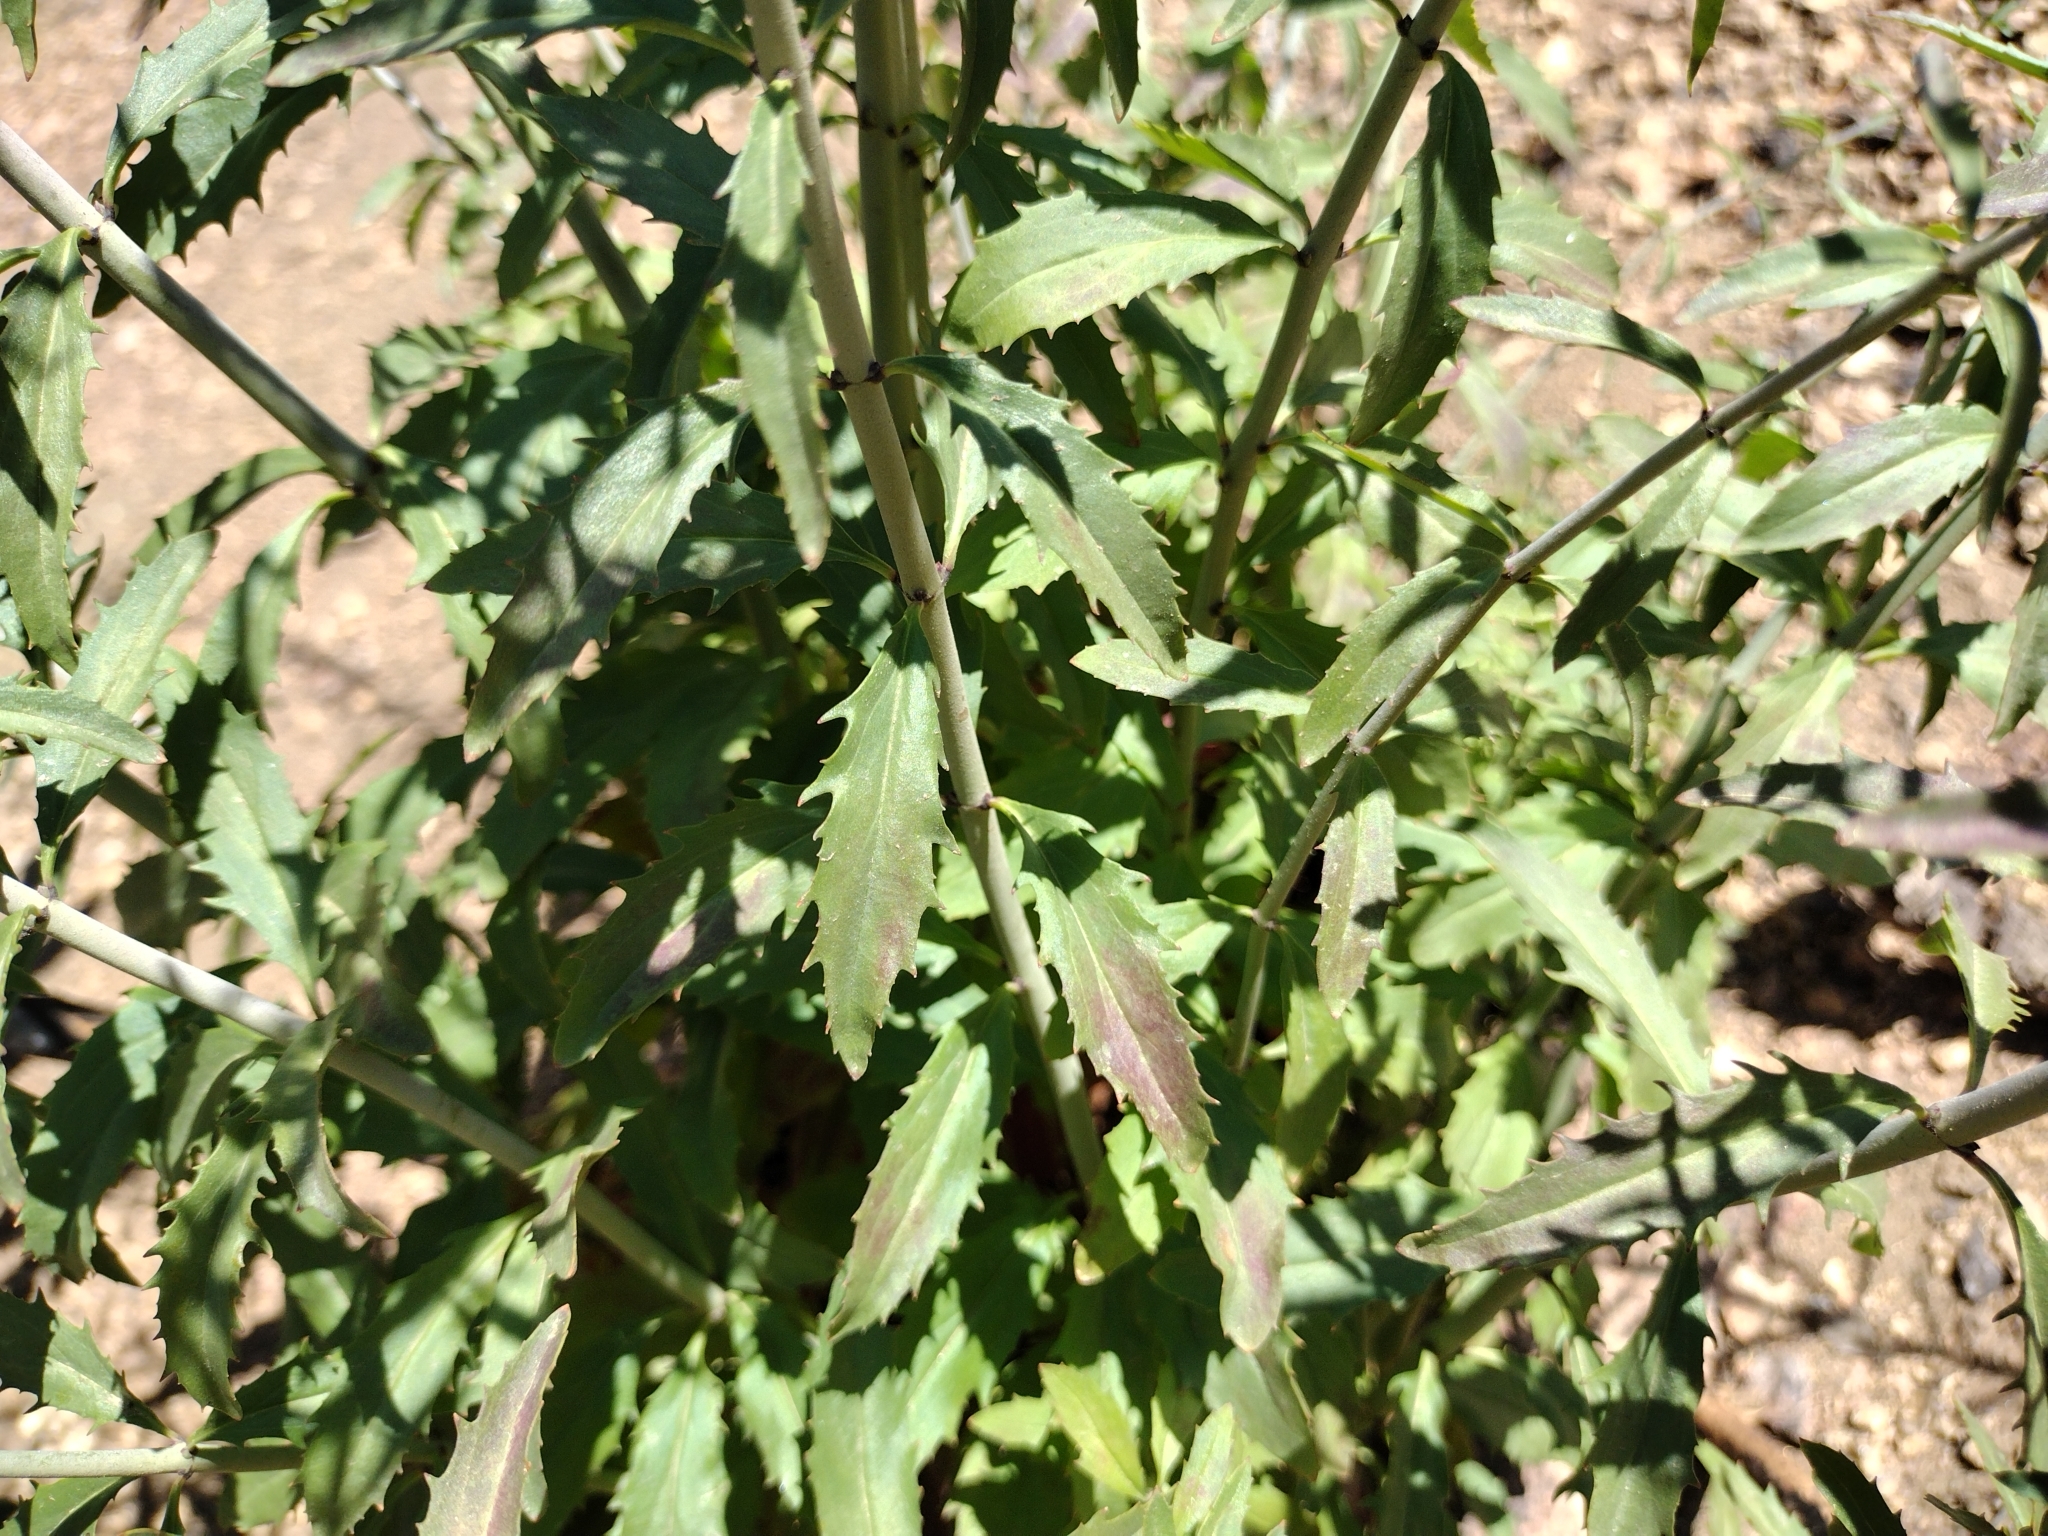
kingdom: Plantae
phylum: Tracheophyta
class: Magnoliopsida
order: Lamiales
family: Plantaginaceae
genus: Keckiella
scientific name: Keckiella ternata
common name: Scarlet keckiella
